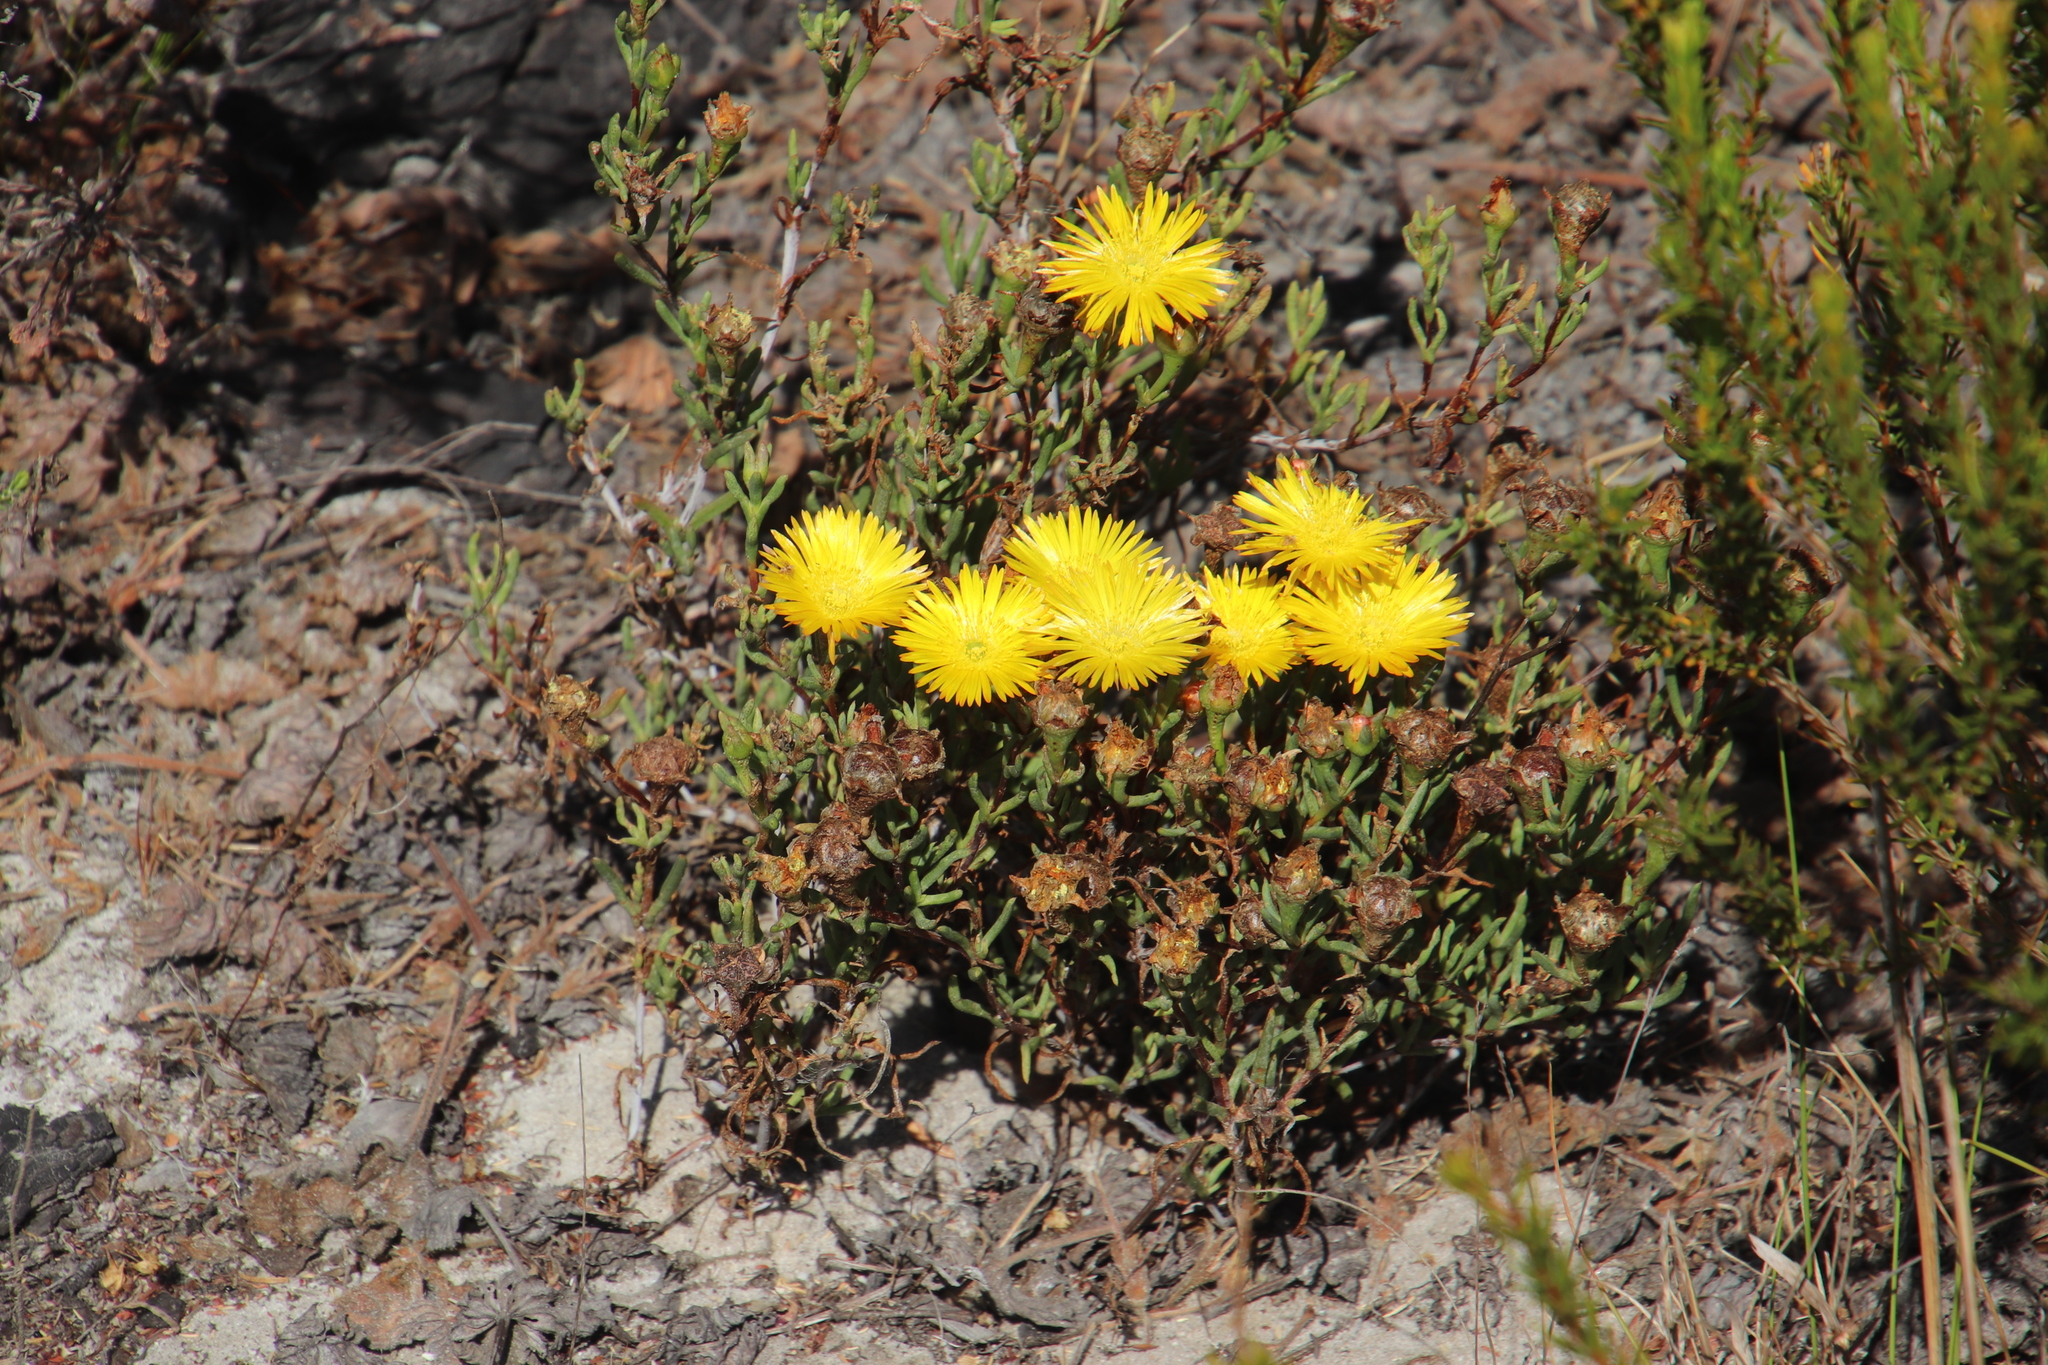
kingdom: Plantae
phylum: Tracheophyta
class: Magnoliopsida
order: Caryophyllales
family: Aizoaceae
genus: Lampranthus
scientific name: Lampranthus bicolor
